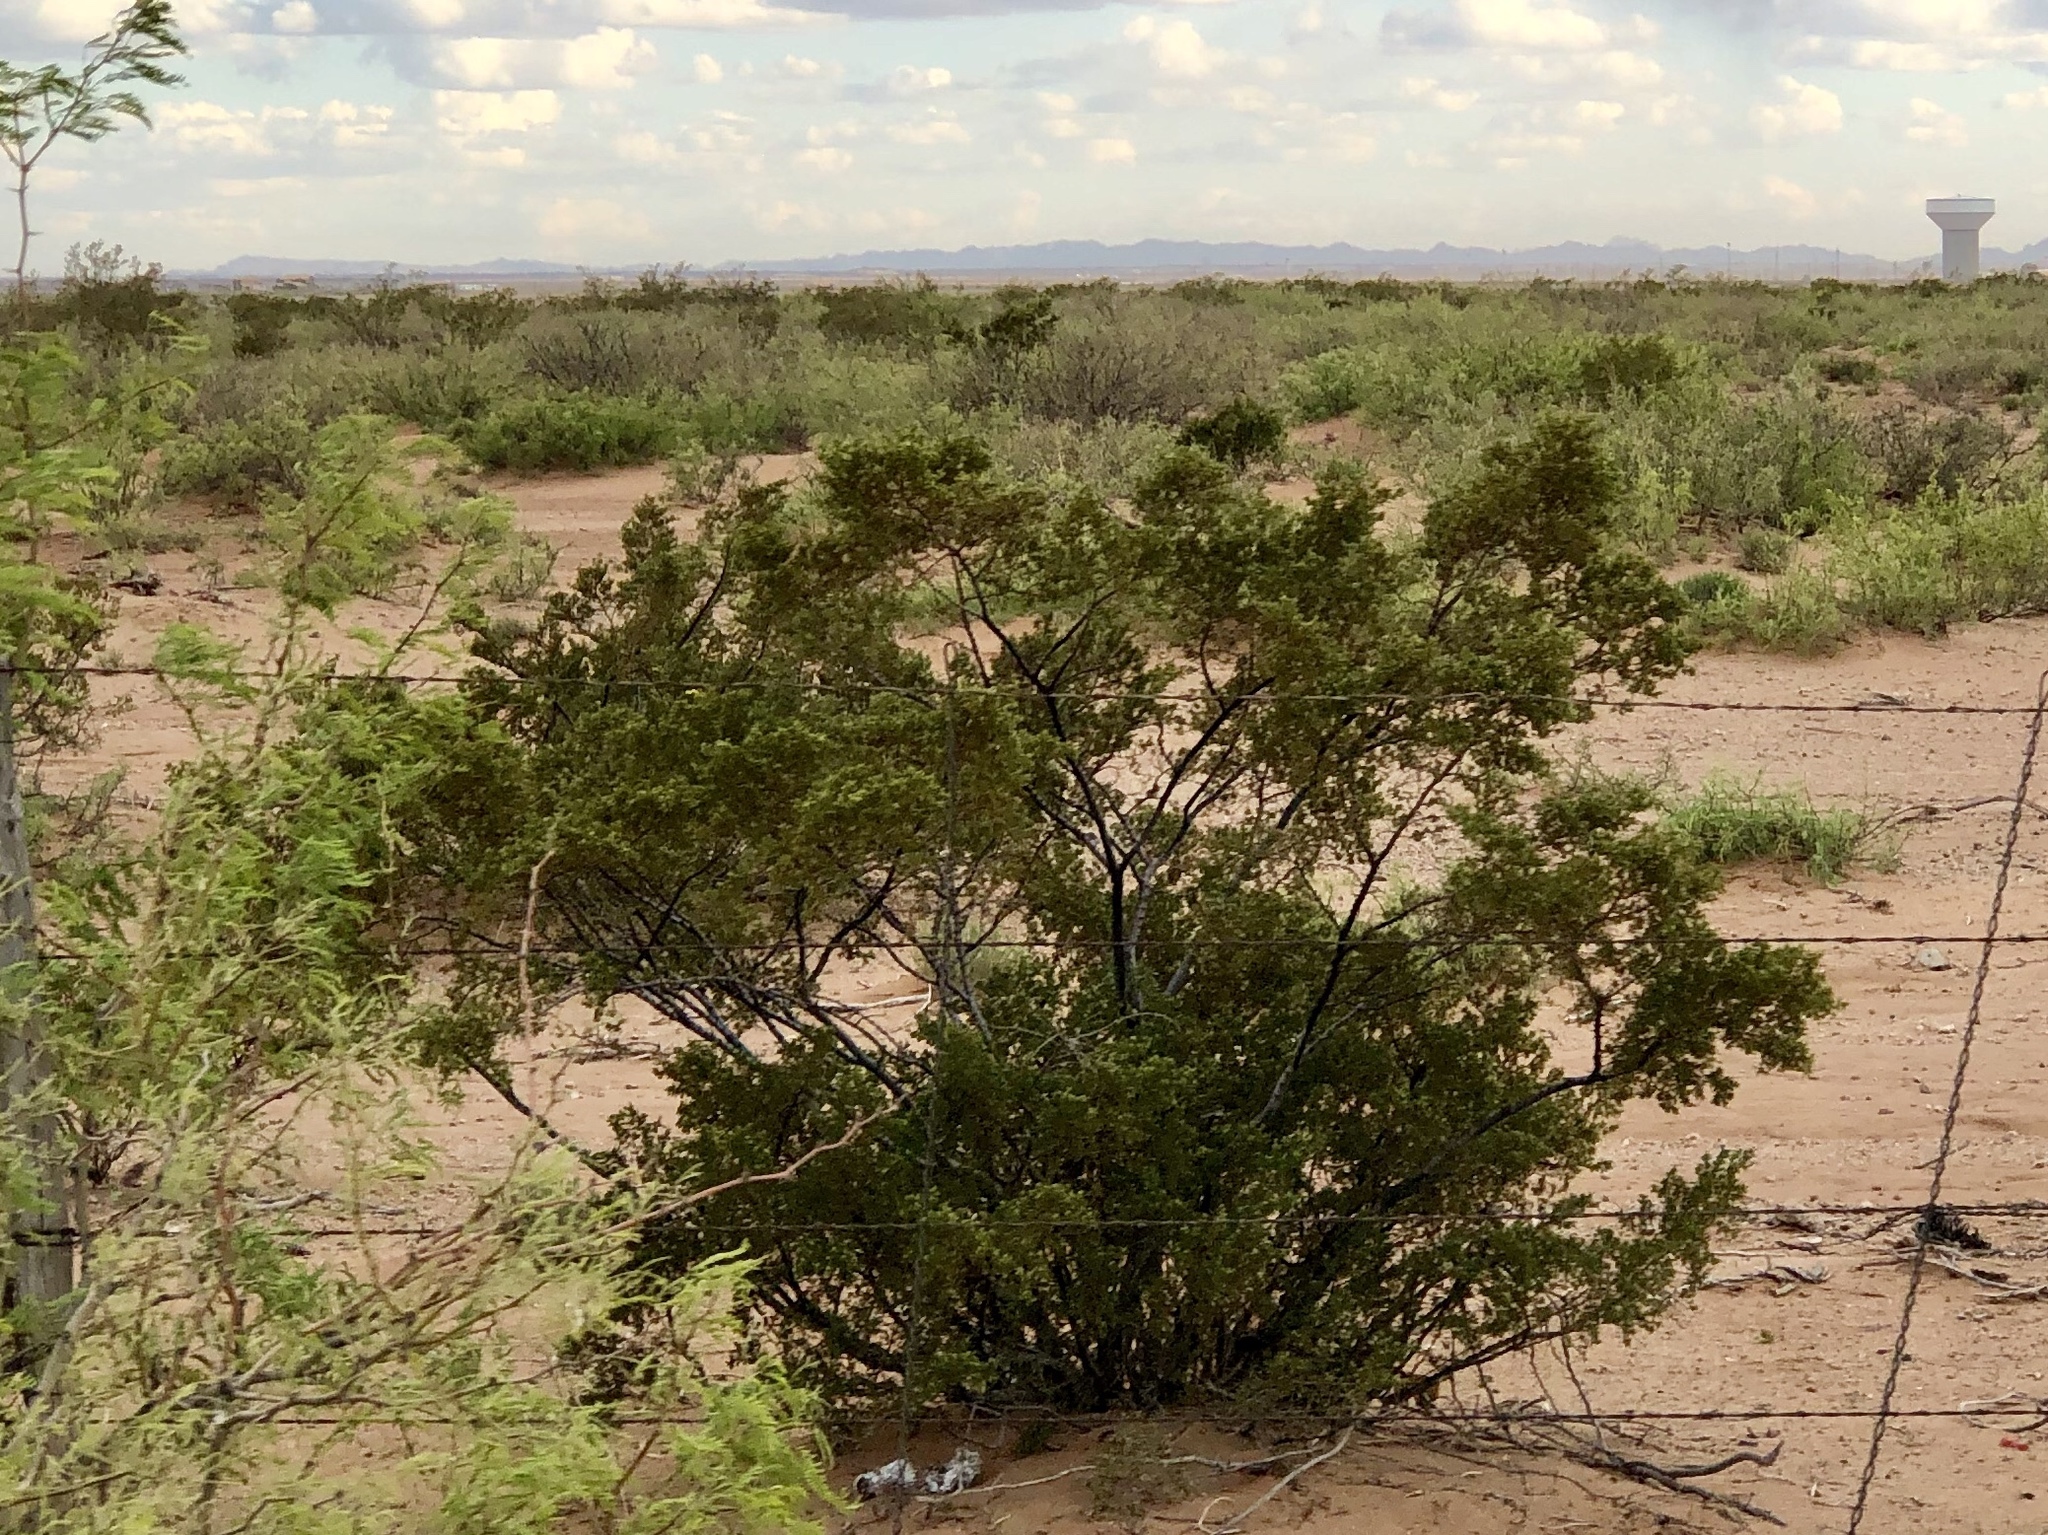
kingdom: Plantae
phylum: Tracheophyta
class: Magnoliopsida
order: Zygophyllales
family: Zygophyllaceae
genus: Larrea
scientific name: Larrea tridentata
